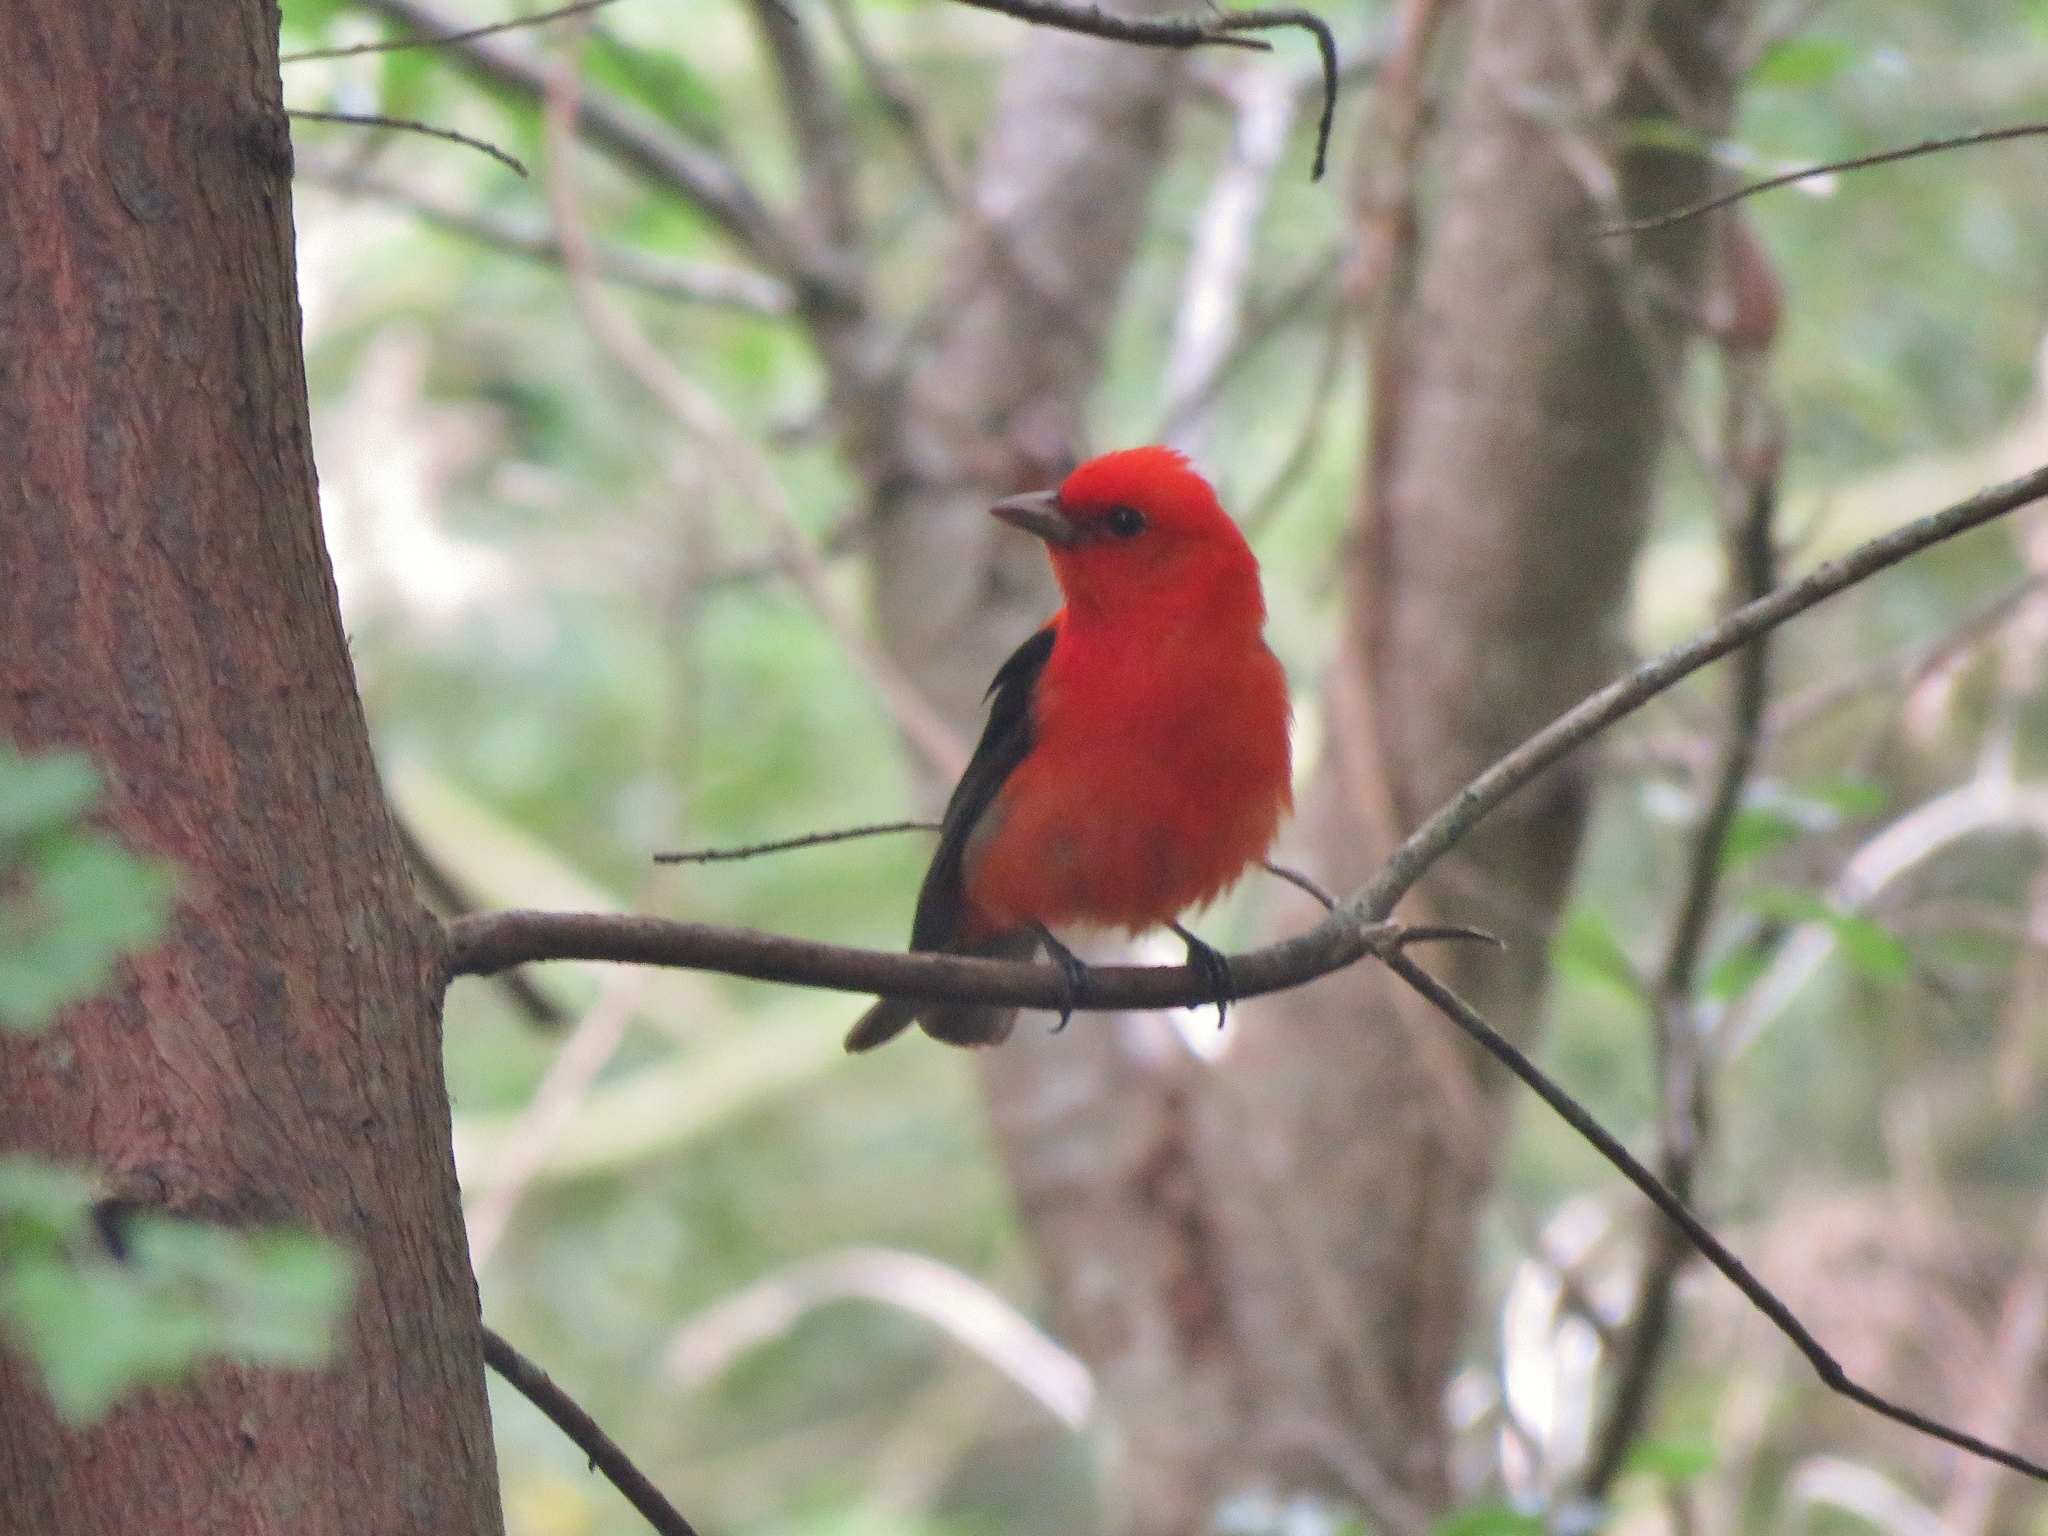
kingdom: Animalia
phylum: Chordata
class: Aves
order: Passeriformes
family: Cardinalidae
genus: Piranga
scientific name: Piranga olivacea
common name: Scarlet tanager
